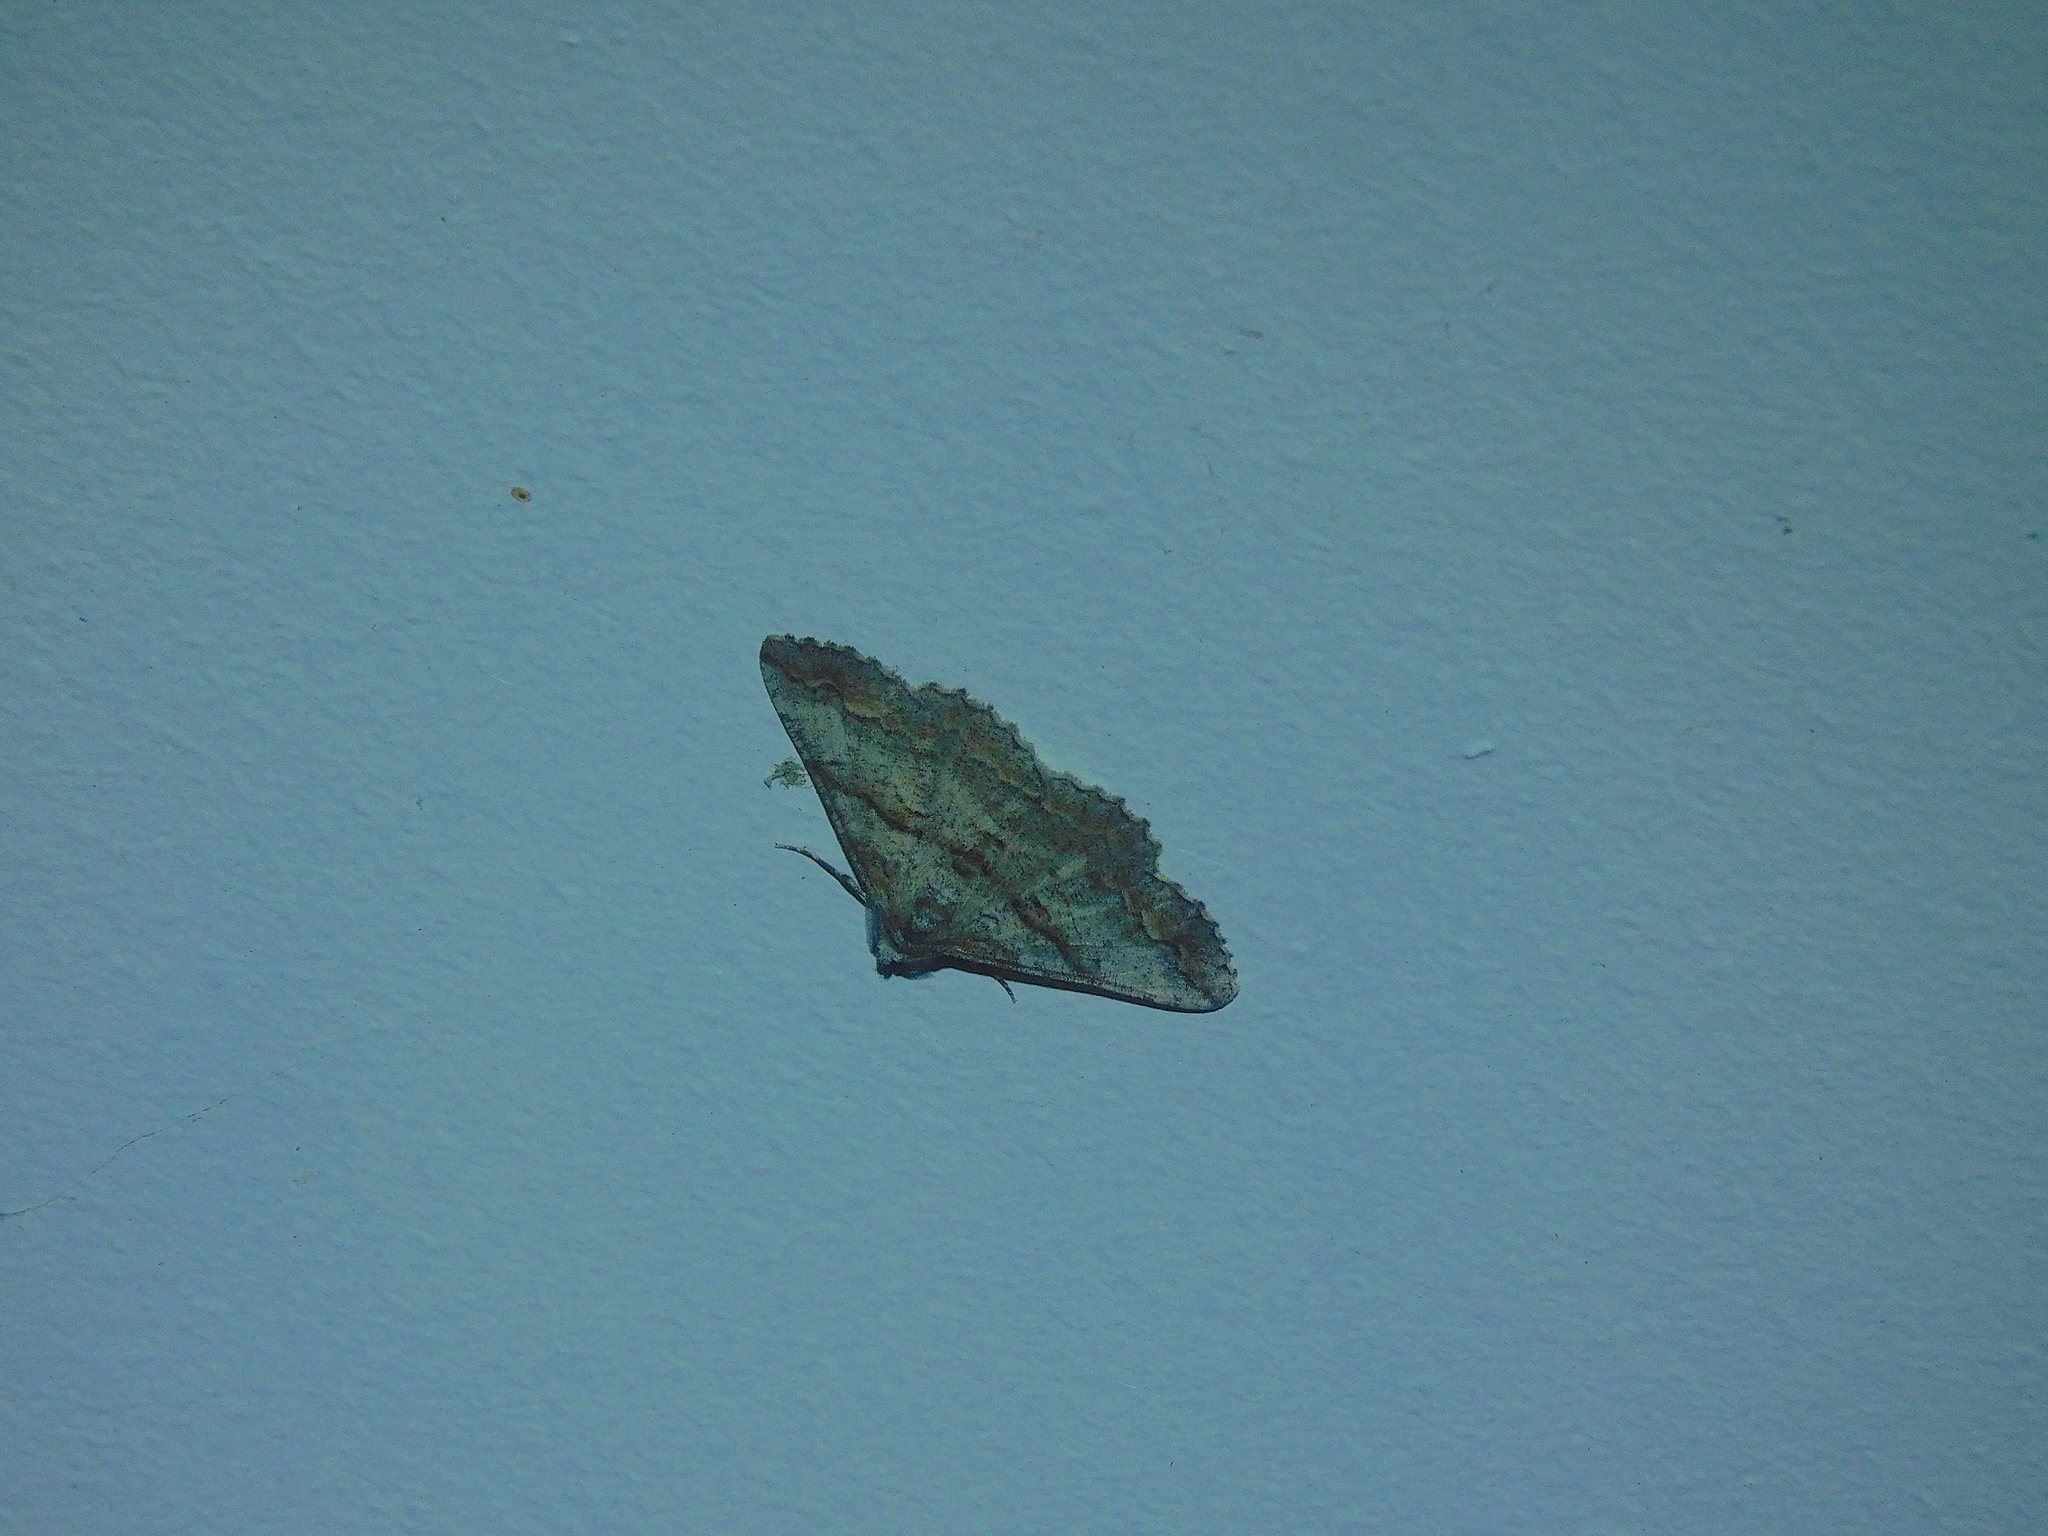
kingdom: Animalia
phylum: Arthropoda
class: Insecta
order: Lepidoptera
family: Geometridae
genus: Gastrinodes
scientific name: Gastrinodes bitaeniaria
